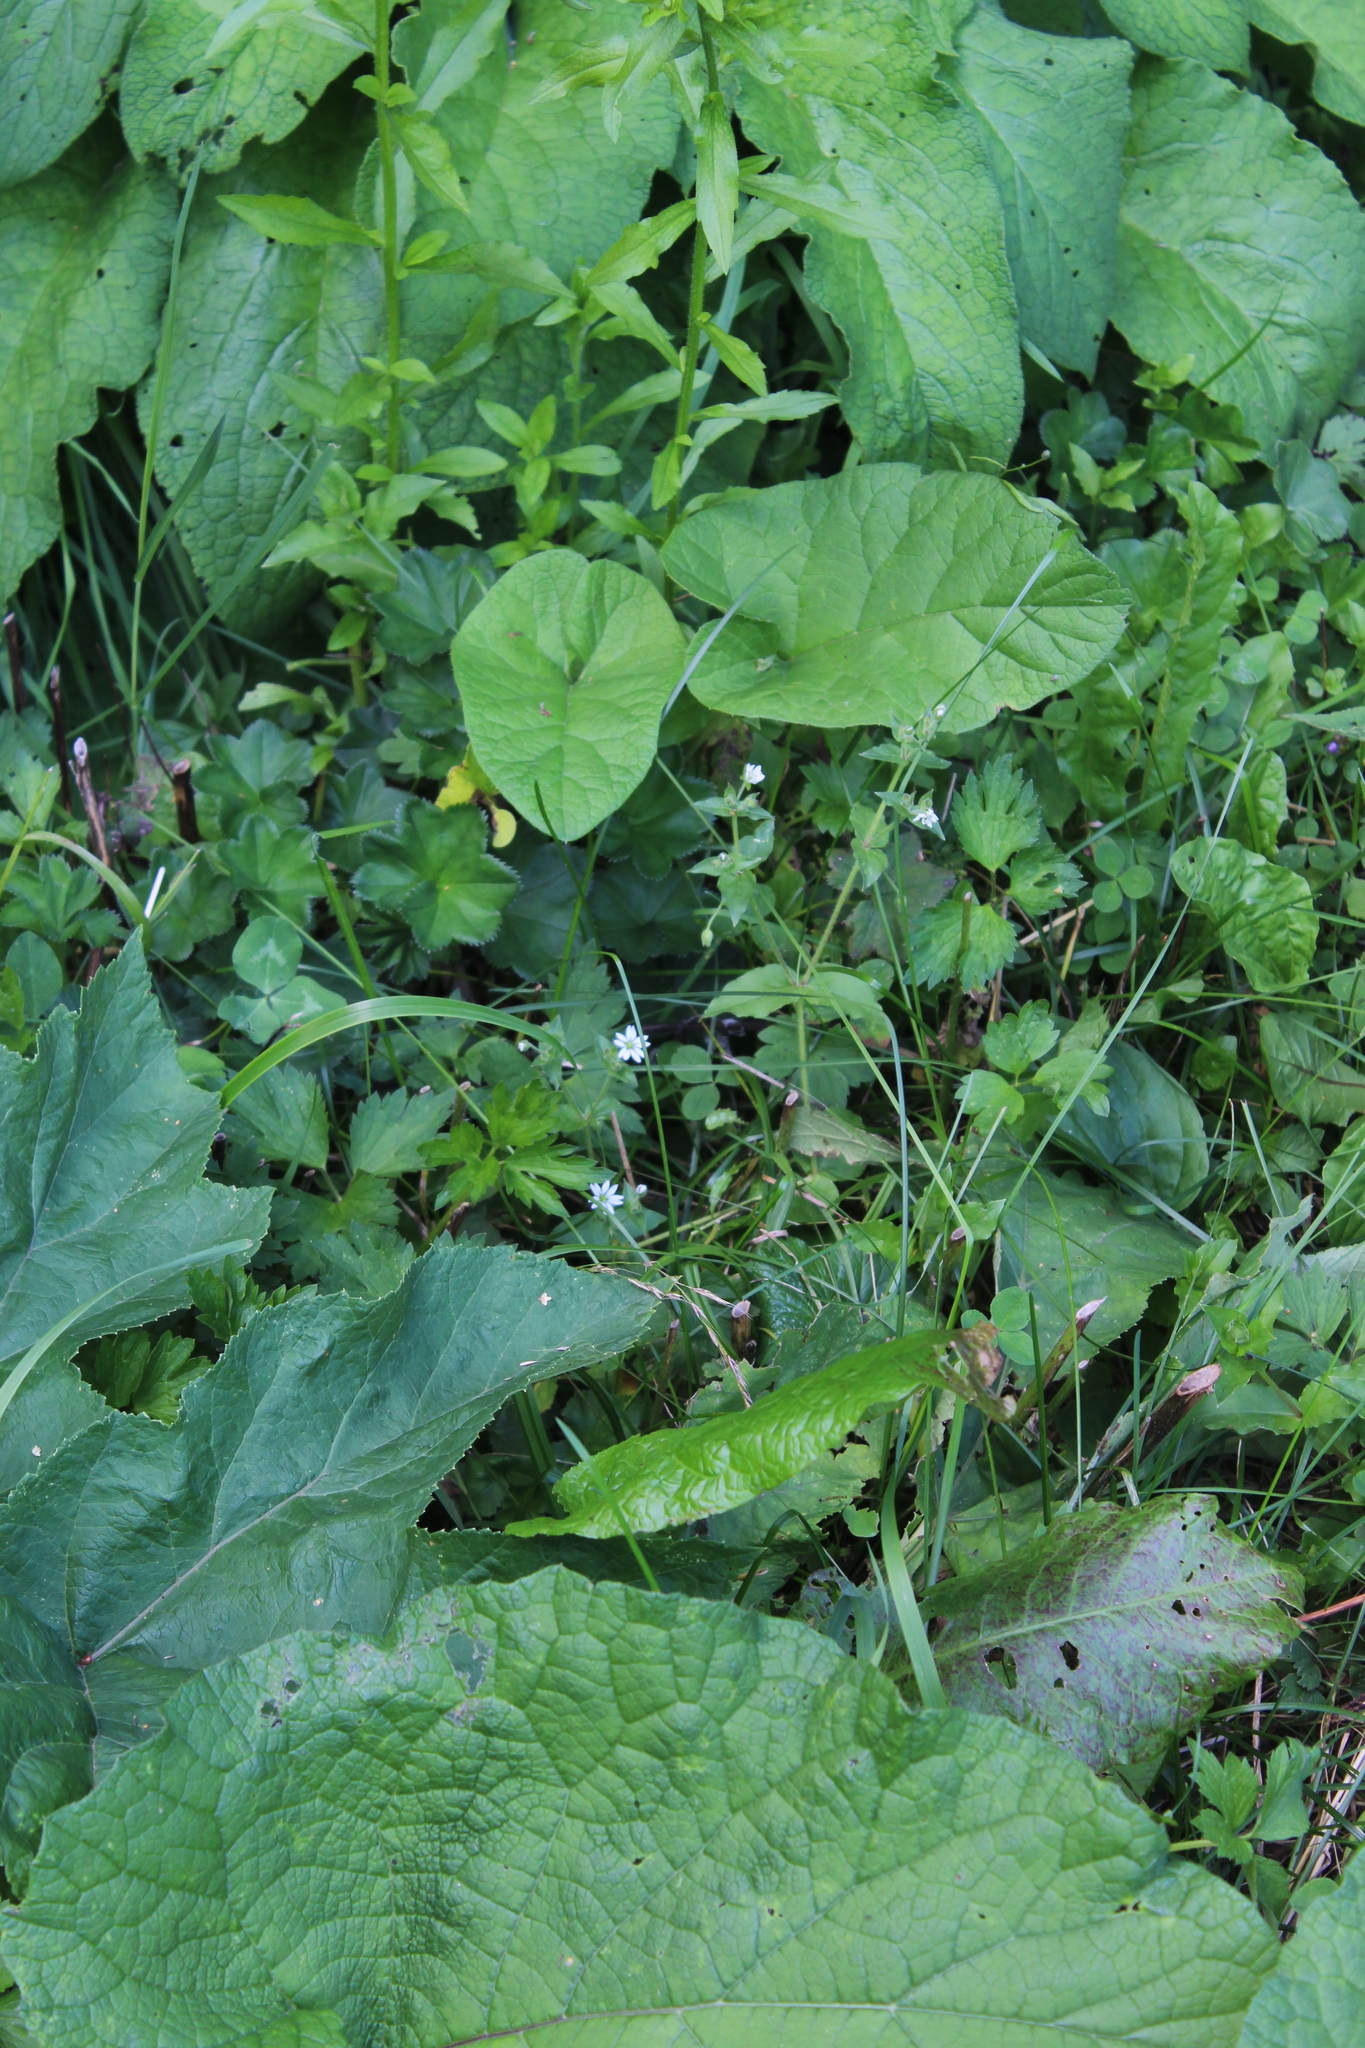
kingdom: Plantae
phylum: Tracheophyta
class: Magnoliopsida
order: Caryophyllales
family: Caryophyllaceae
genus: Stellaria
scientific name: Stellaria aquatica
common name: Water chickweed
